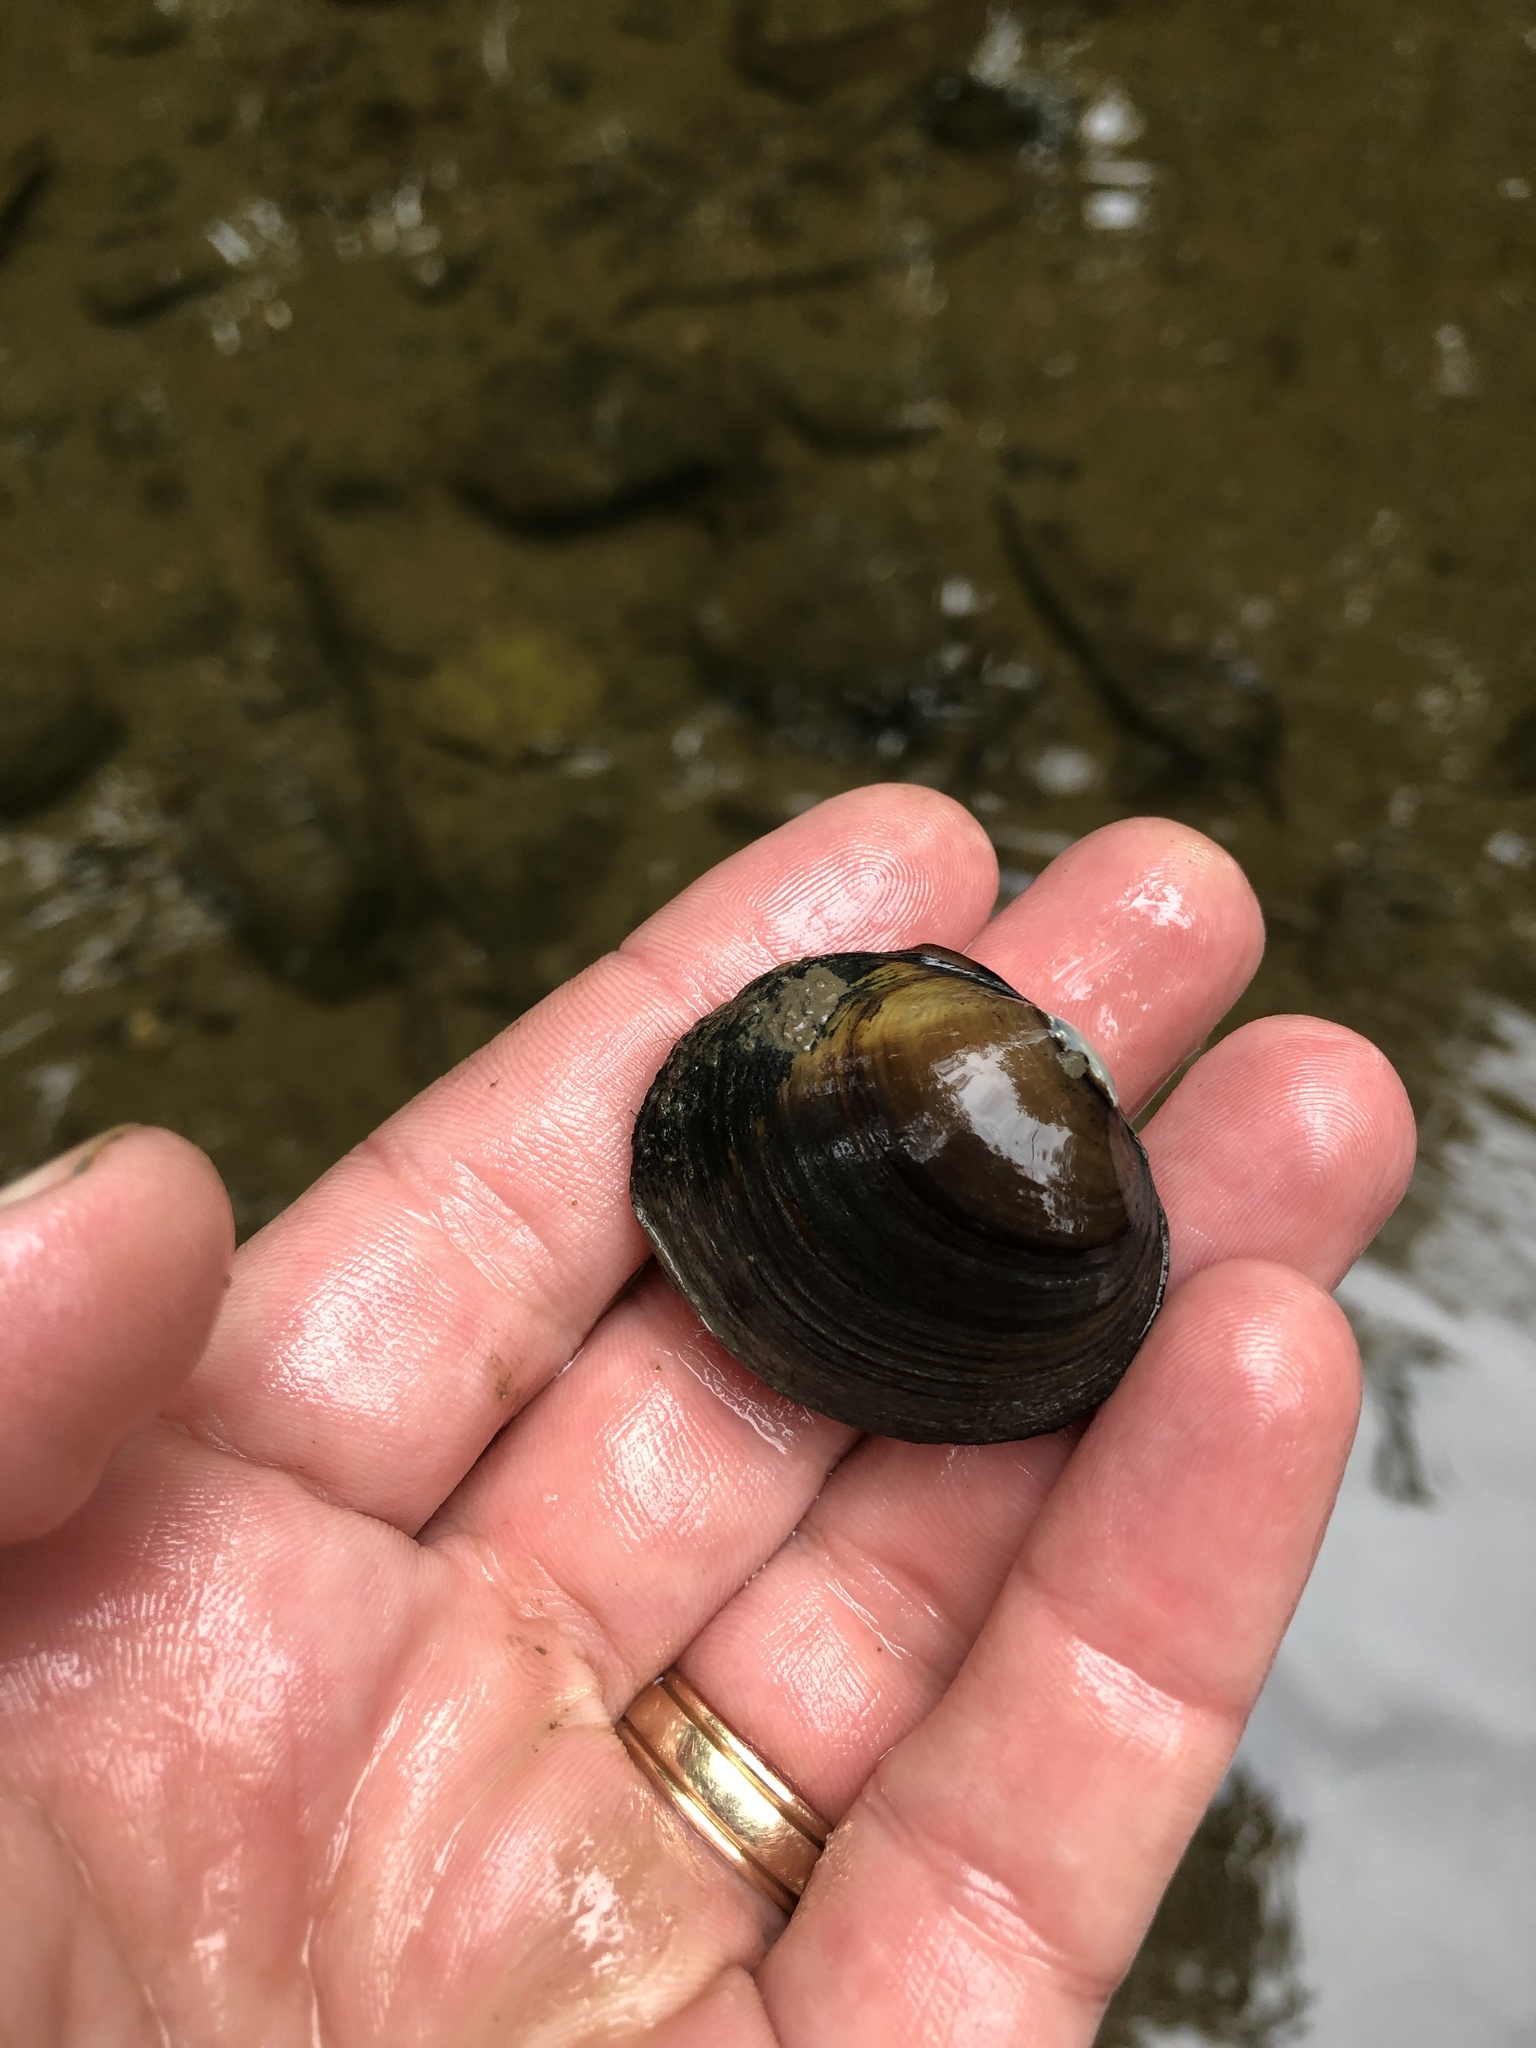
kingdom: Animalia
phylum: Mollusca
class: Bivalvia
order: Unionida
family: Unionidae
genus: Obovaria
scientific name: Obovaria subrotunda
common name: Round hickorynut
